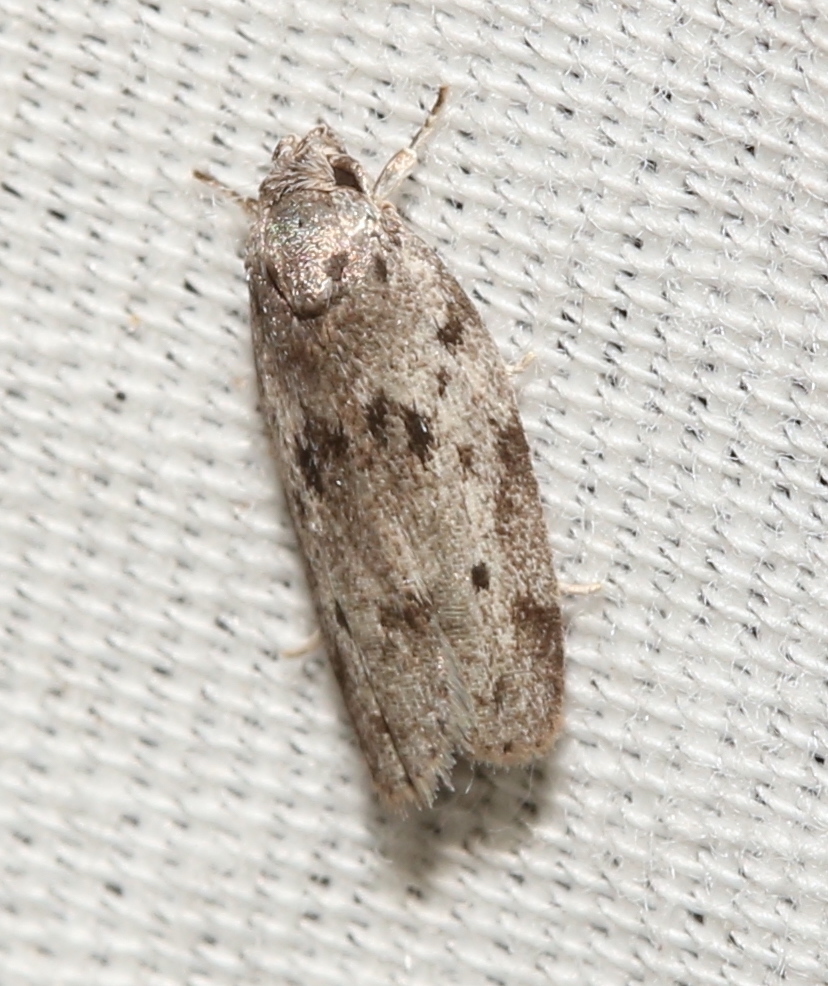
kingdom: Animalia
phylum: Arthropoda
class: Insecta
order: Lepidoptera
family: Depressariidae
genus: Antaeotricha
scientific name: Antaeotricha humilis
